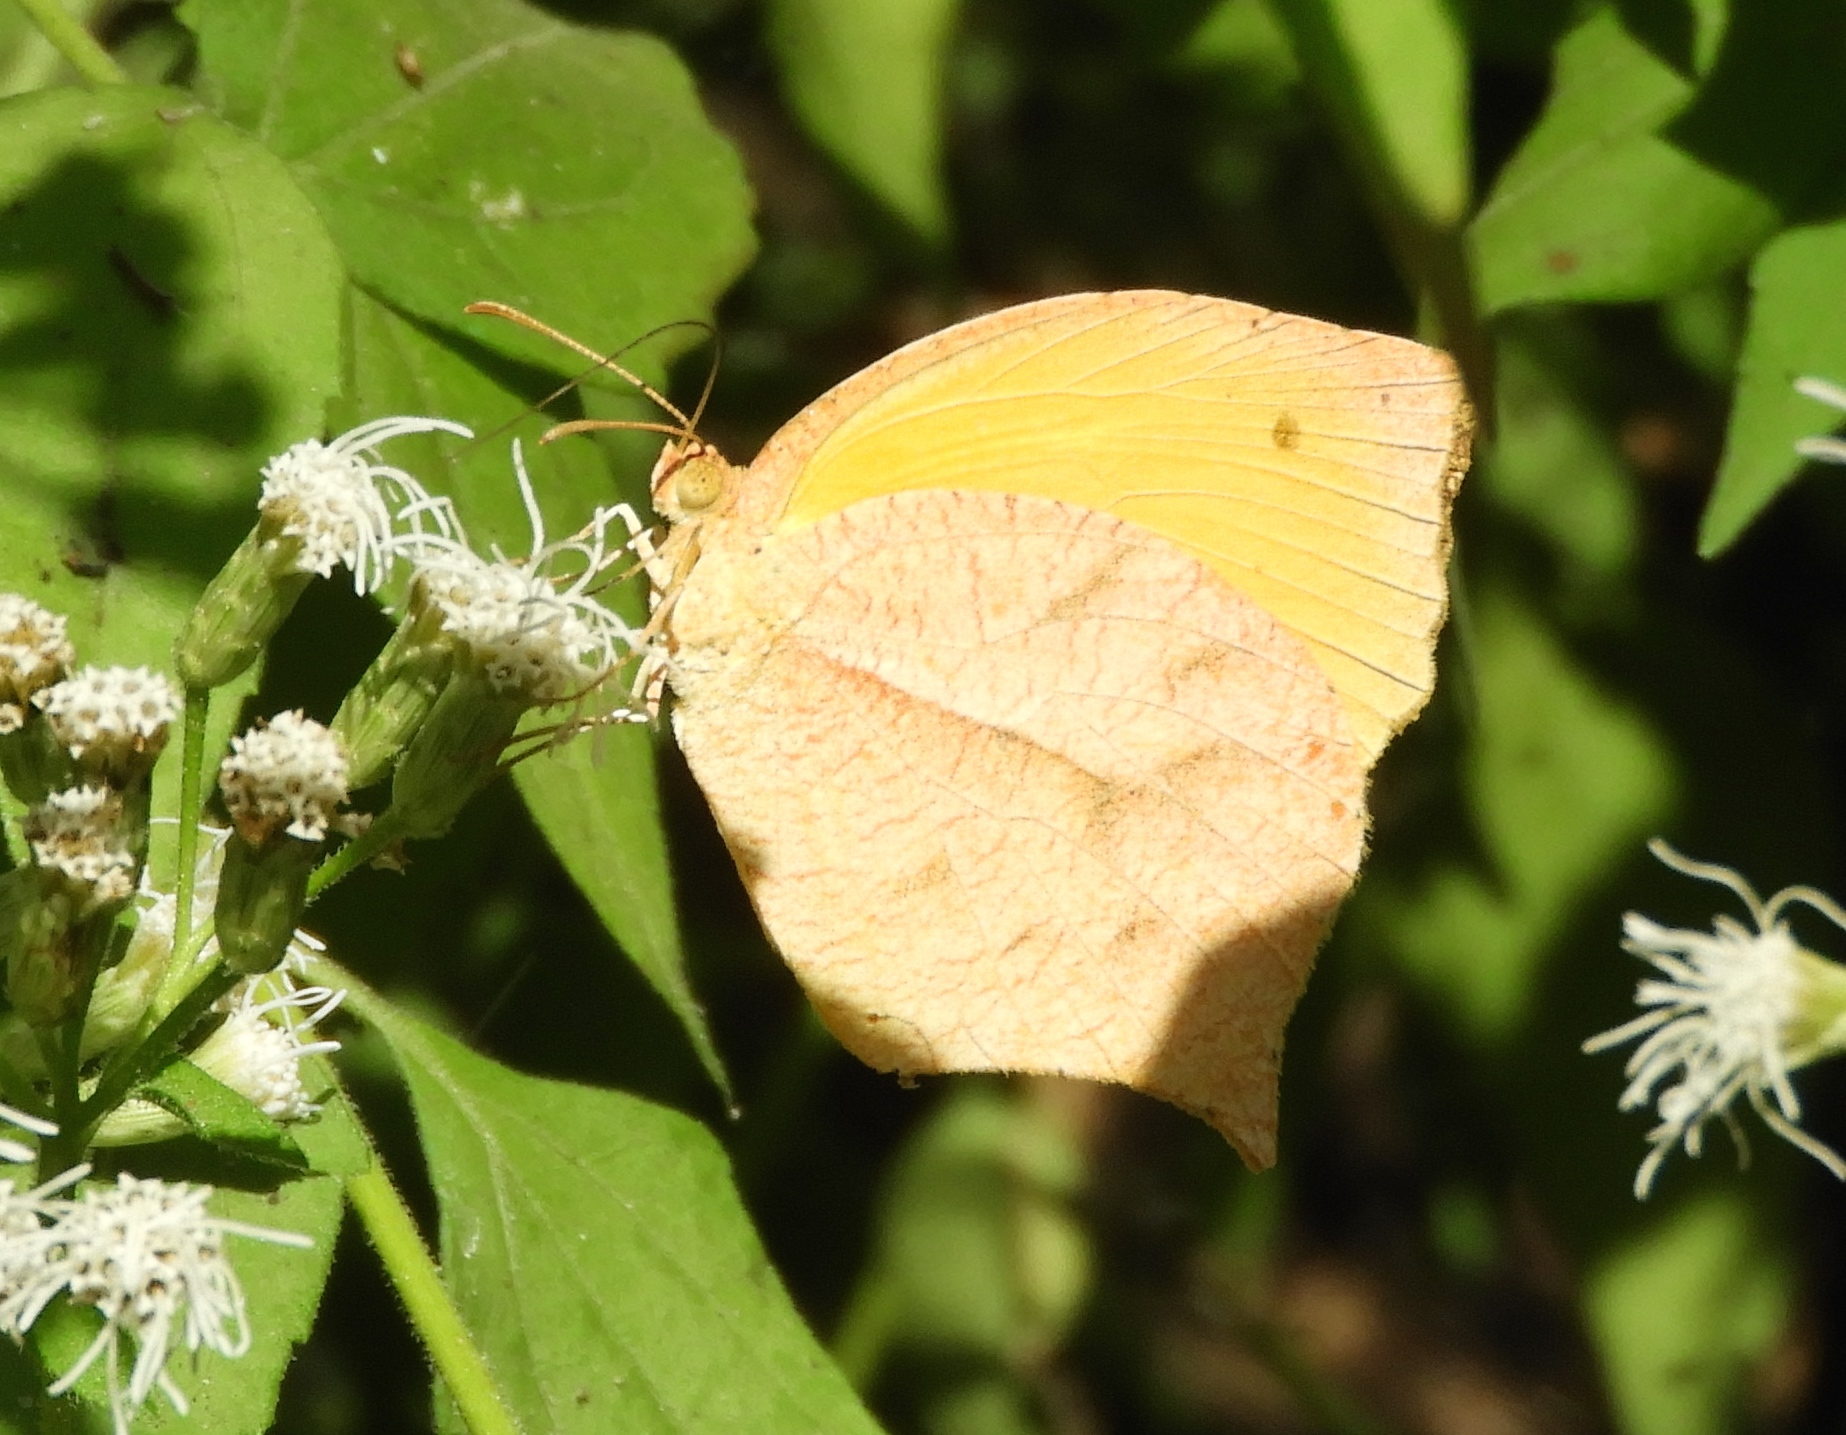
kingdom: Animalia
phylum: Arthropoda
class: Insecta
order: Lepidoptera
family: Pieridae
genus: Pyrisitia
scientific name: Pyrisitia proterpia
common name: Tailed orange
